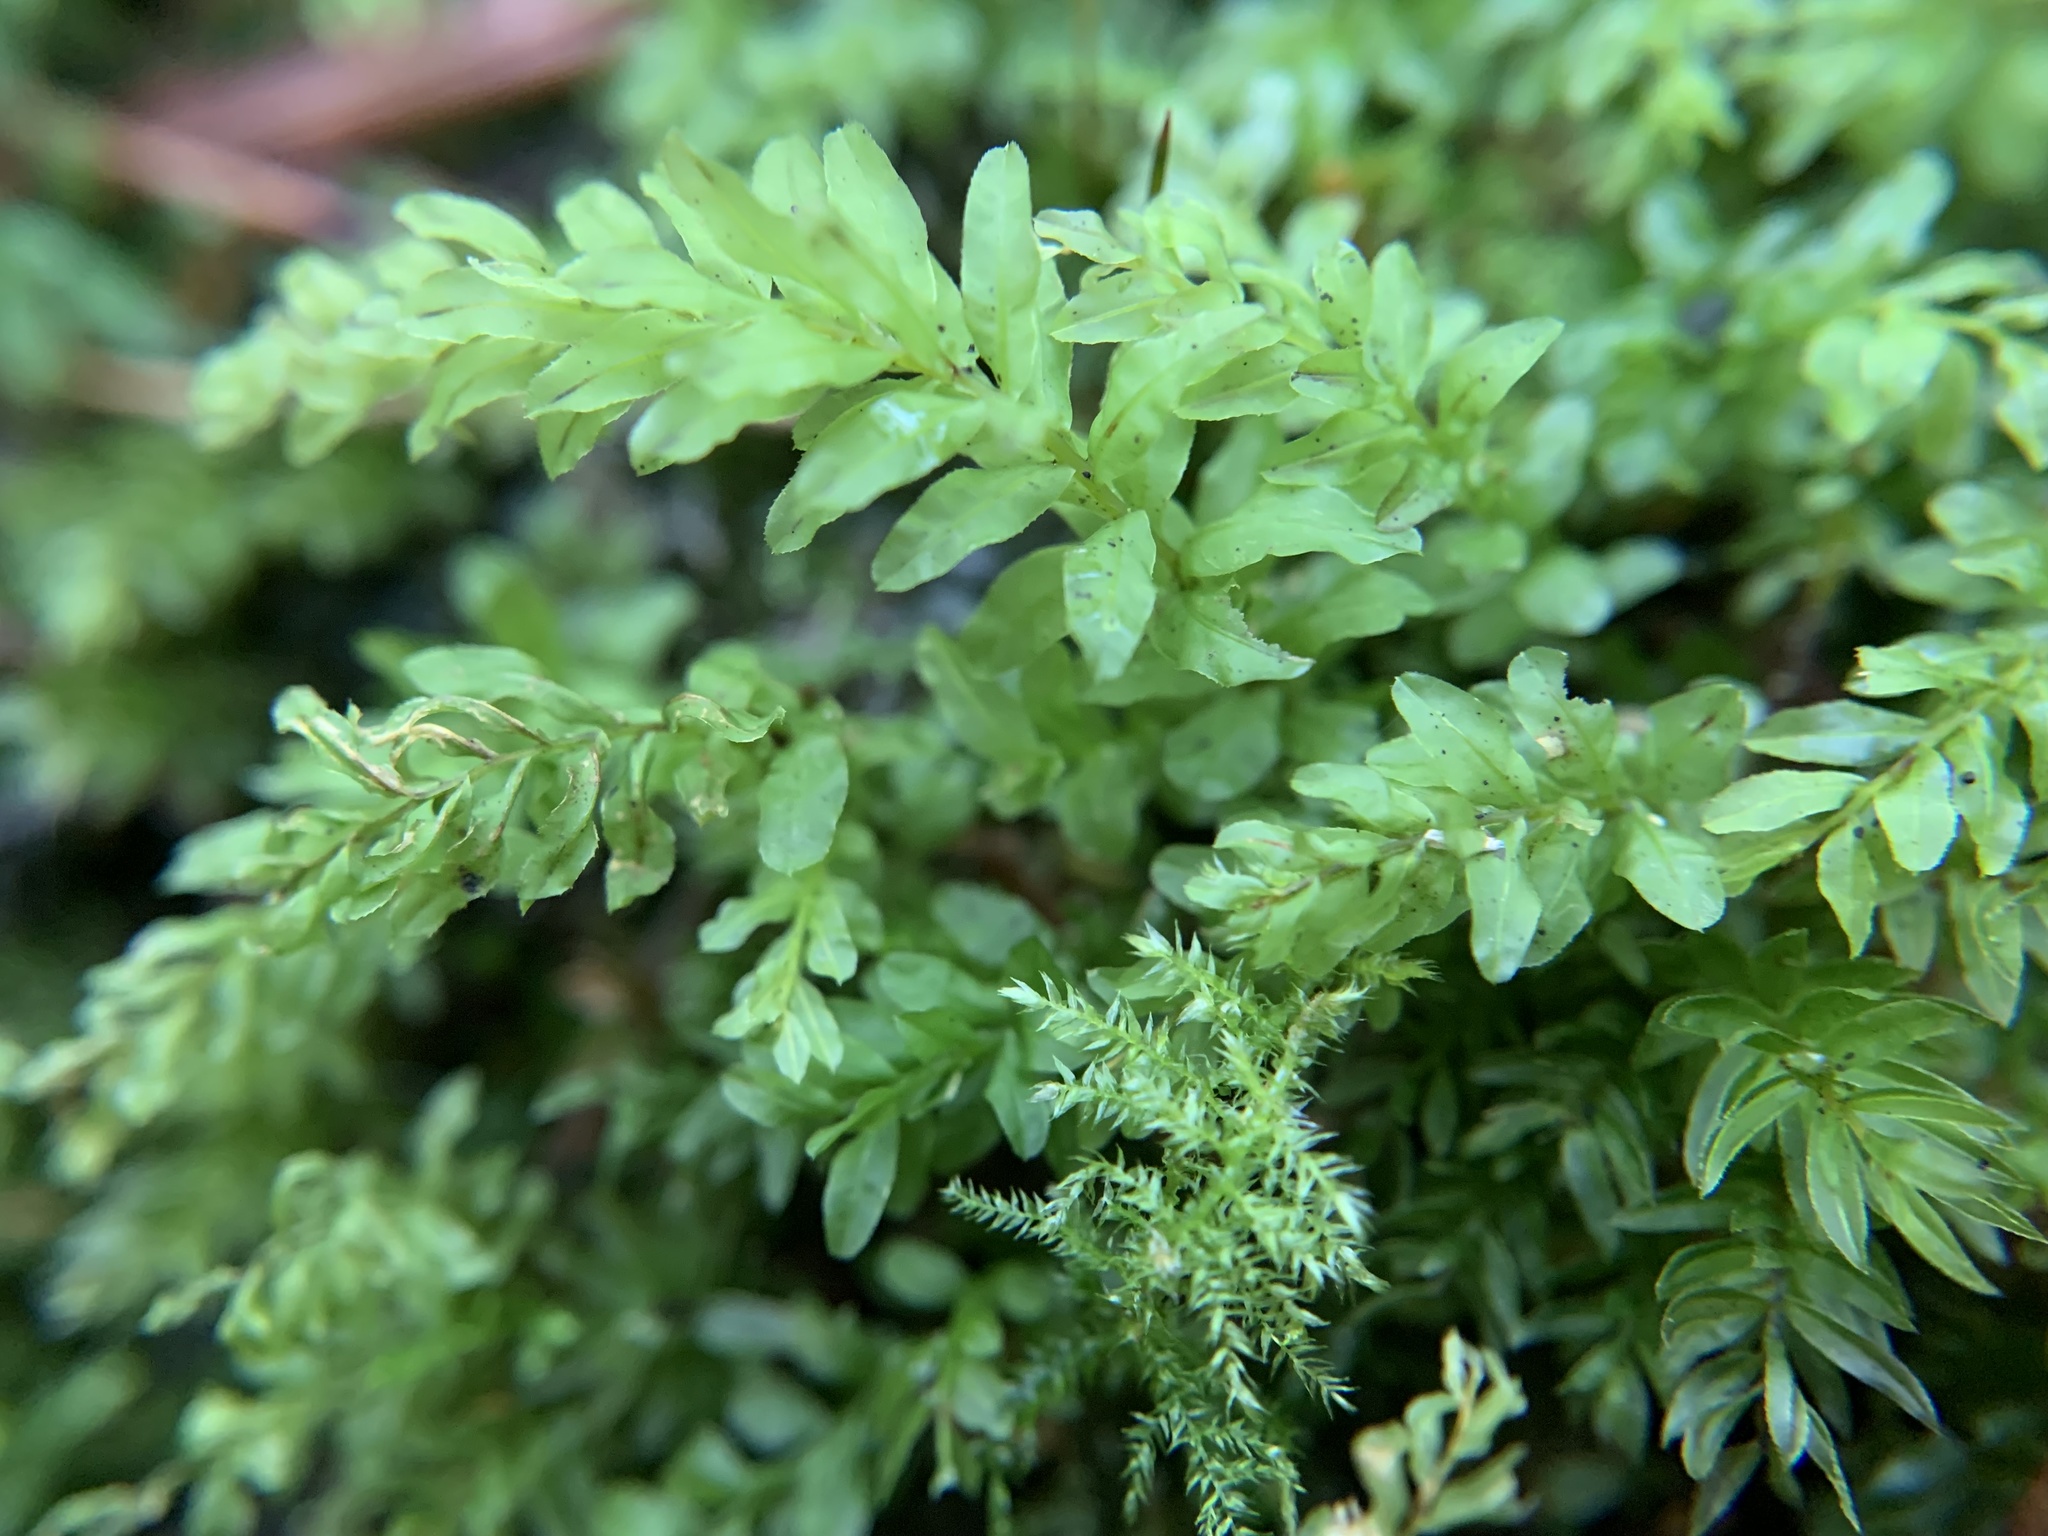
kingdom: Plantae
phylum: Bryophyta
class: Bryopsida
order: Bryales
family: Mniaceae
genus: Plagiomnium
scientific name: Plagiomnium undulatum
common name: Hart's-tongue thyme-moss
